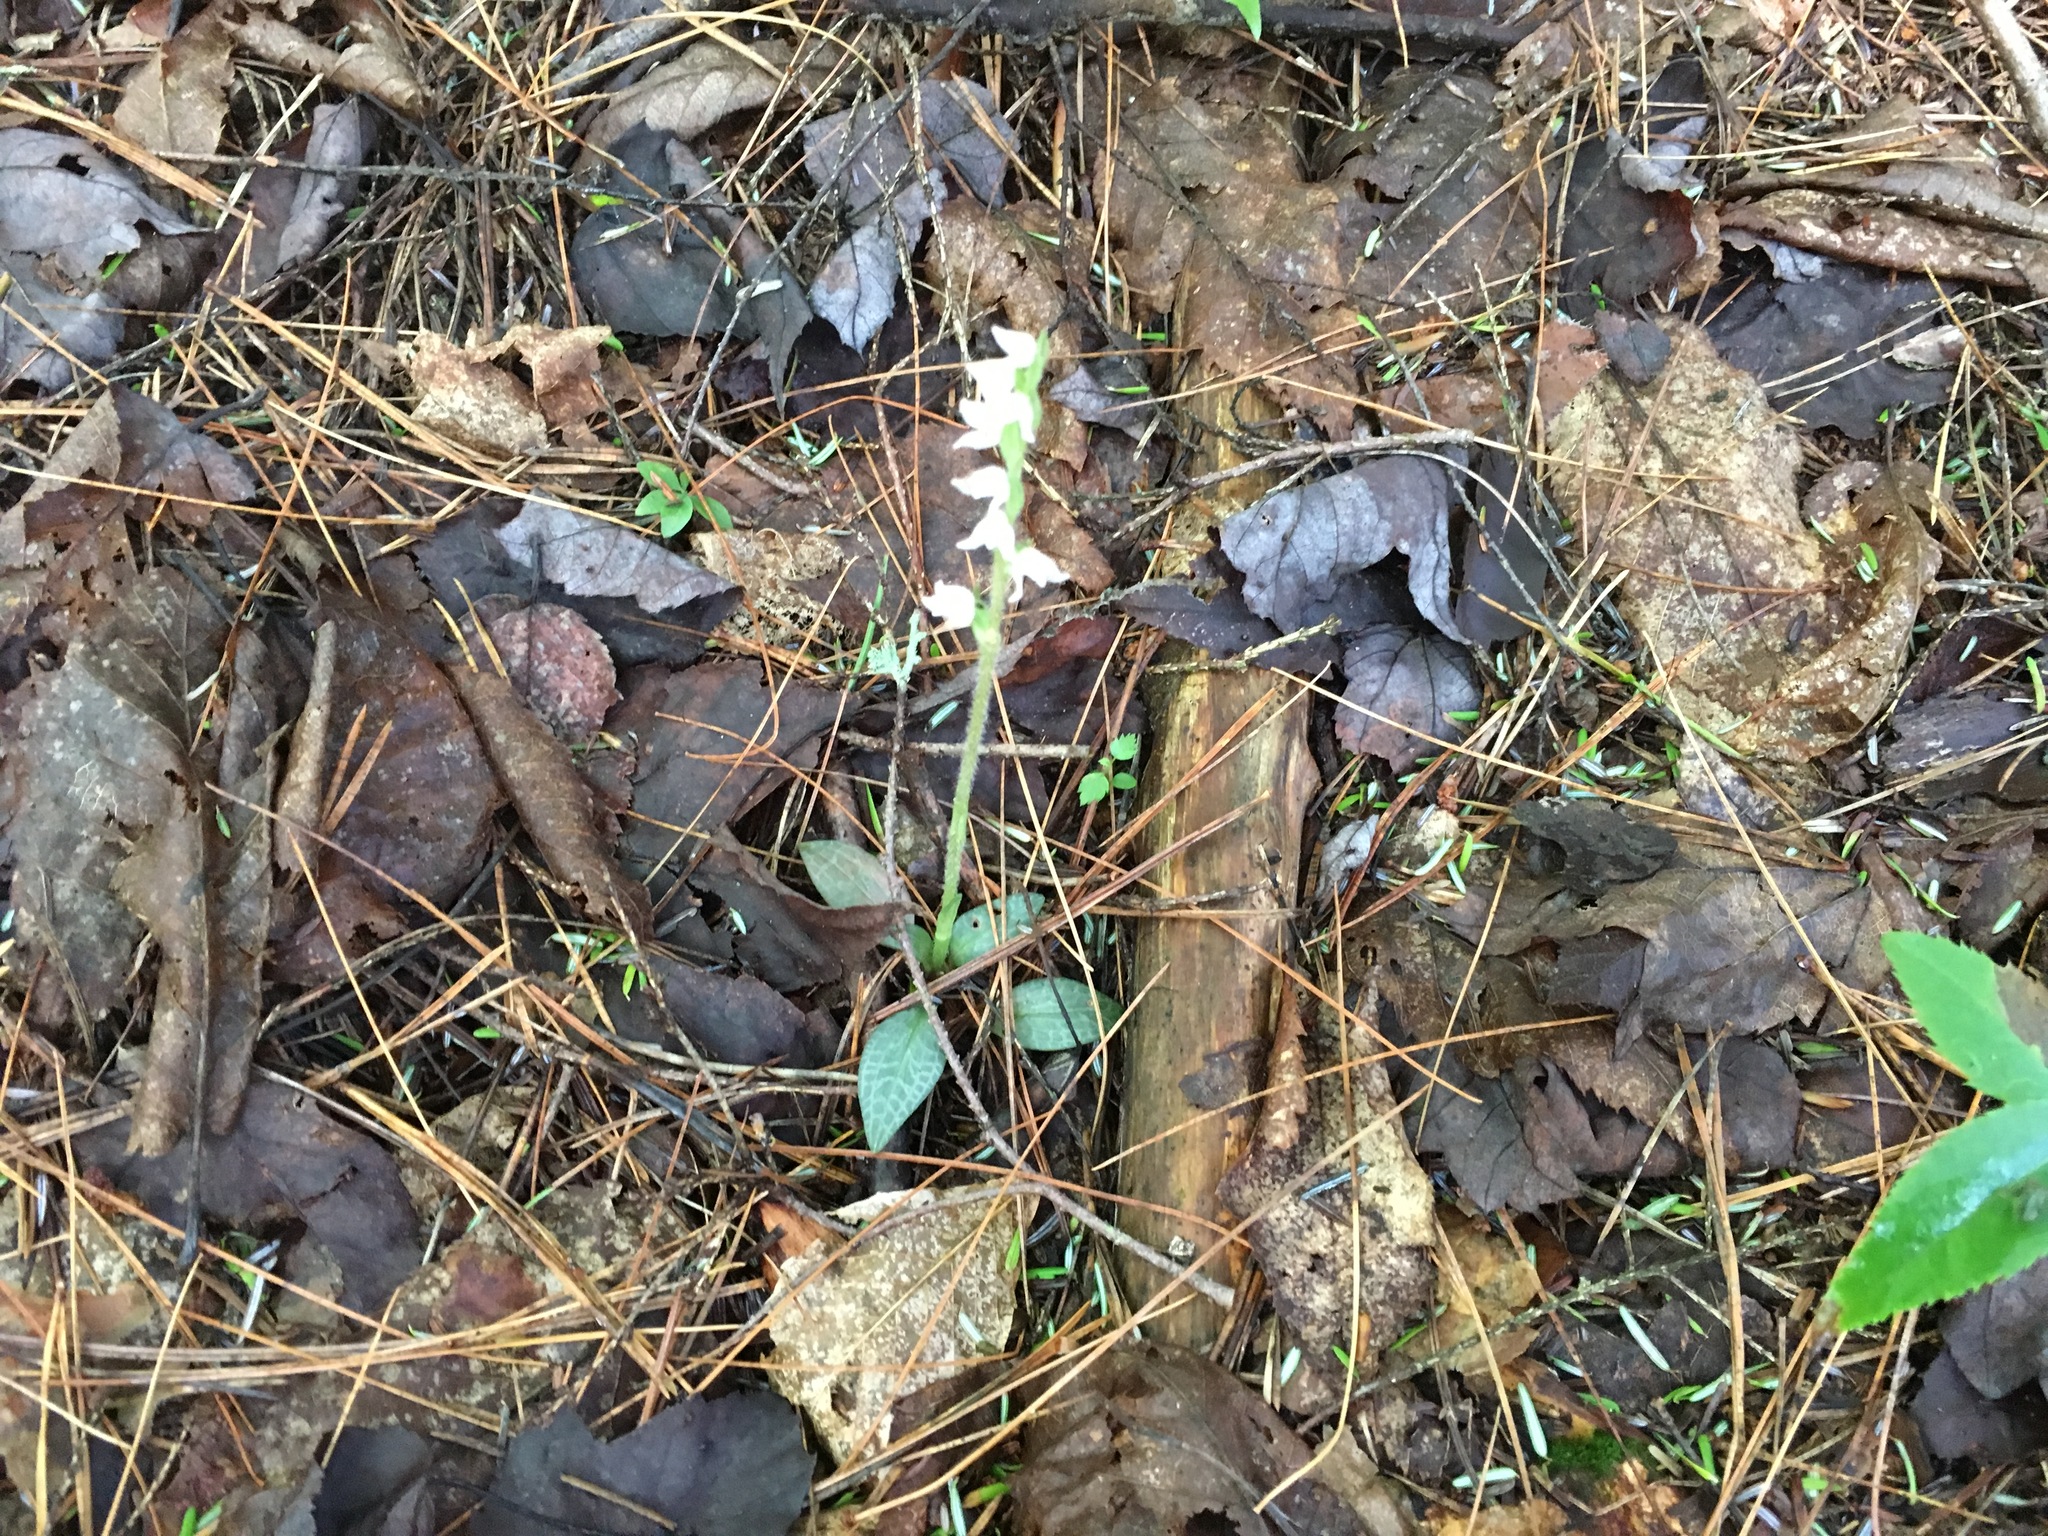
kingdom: Plantae
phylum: Tracheophyta
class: Liliopsida
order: Asparagales
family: Orchidaceae
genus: Goodyera
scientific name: Goodyera tesselata
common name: Checkered rattlesnake-plantain
